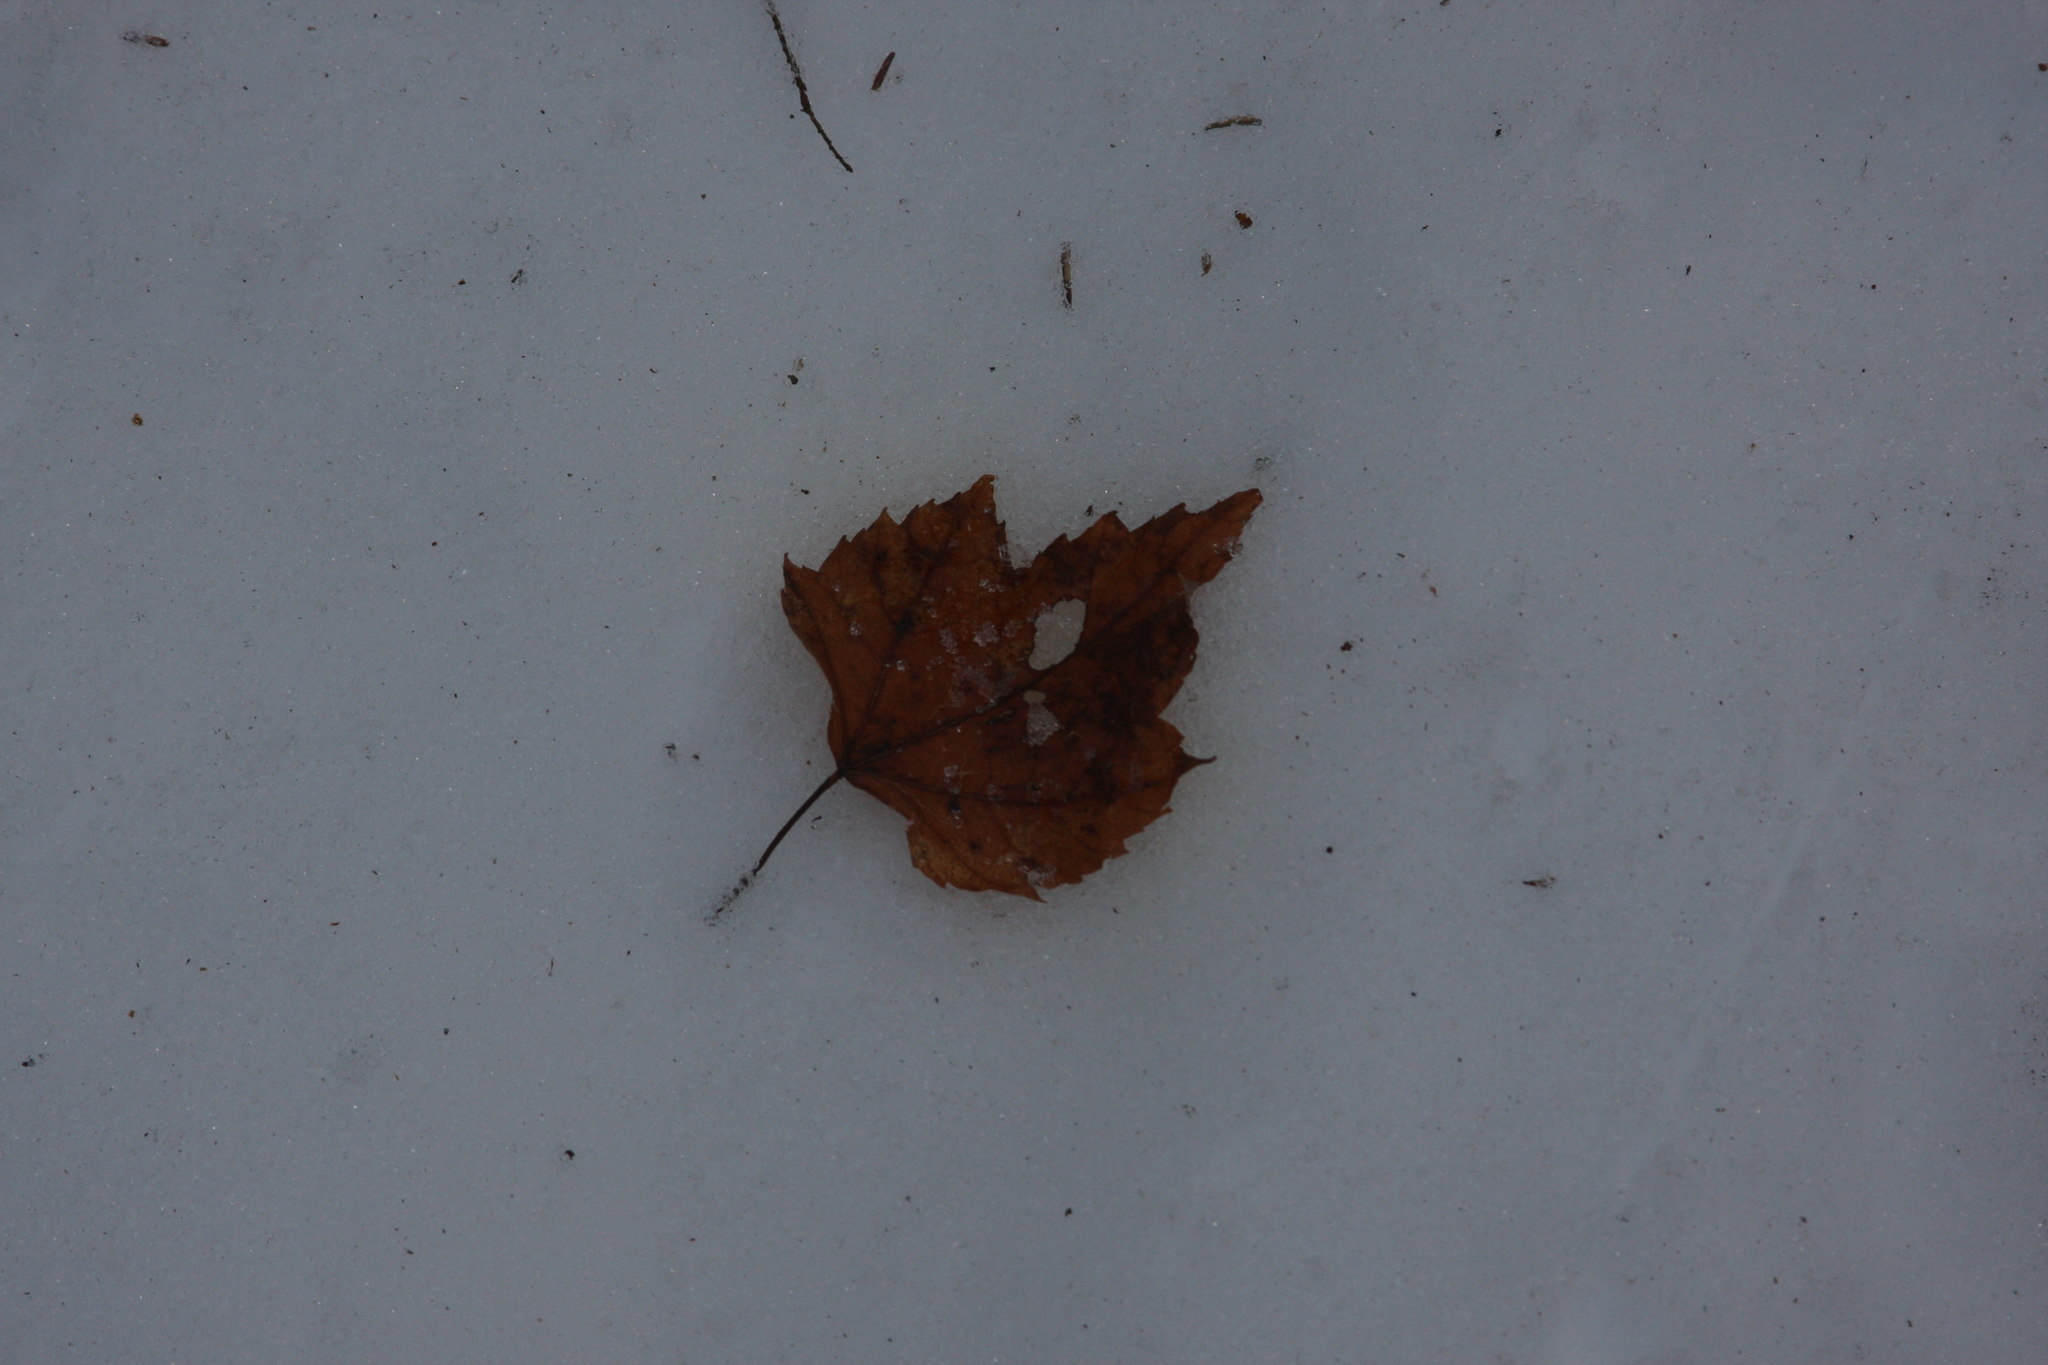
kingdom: Plantae
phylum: Tracheophyta
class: Magnoliopsida
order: Sapindales
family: Sapindaceae
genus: Acer
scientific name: Acer rubrum
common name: Red maple
